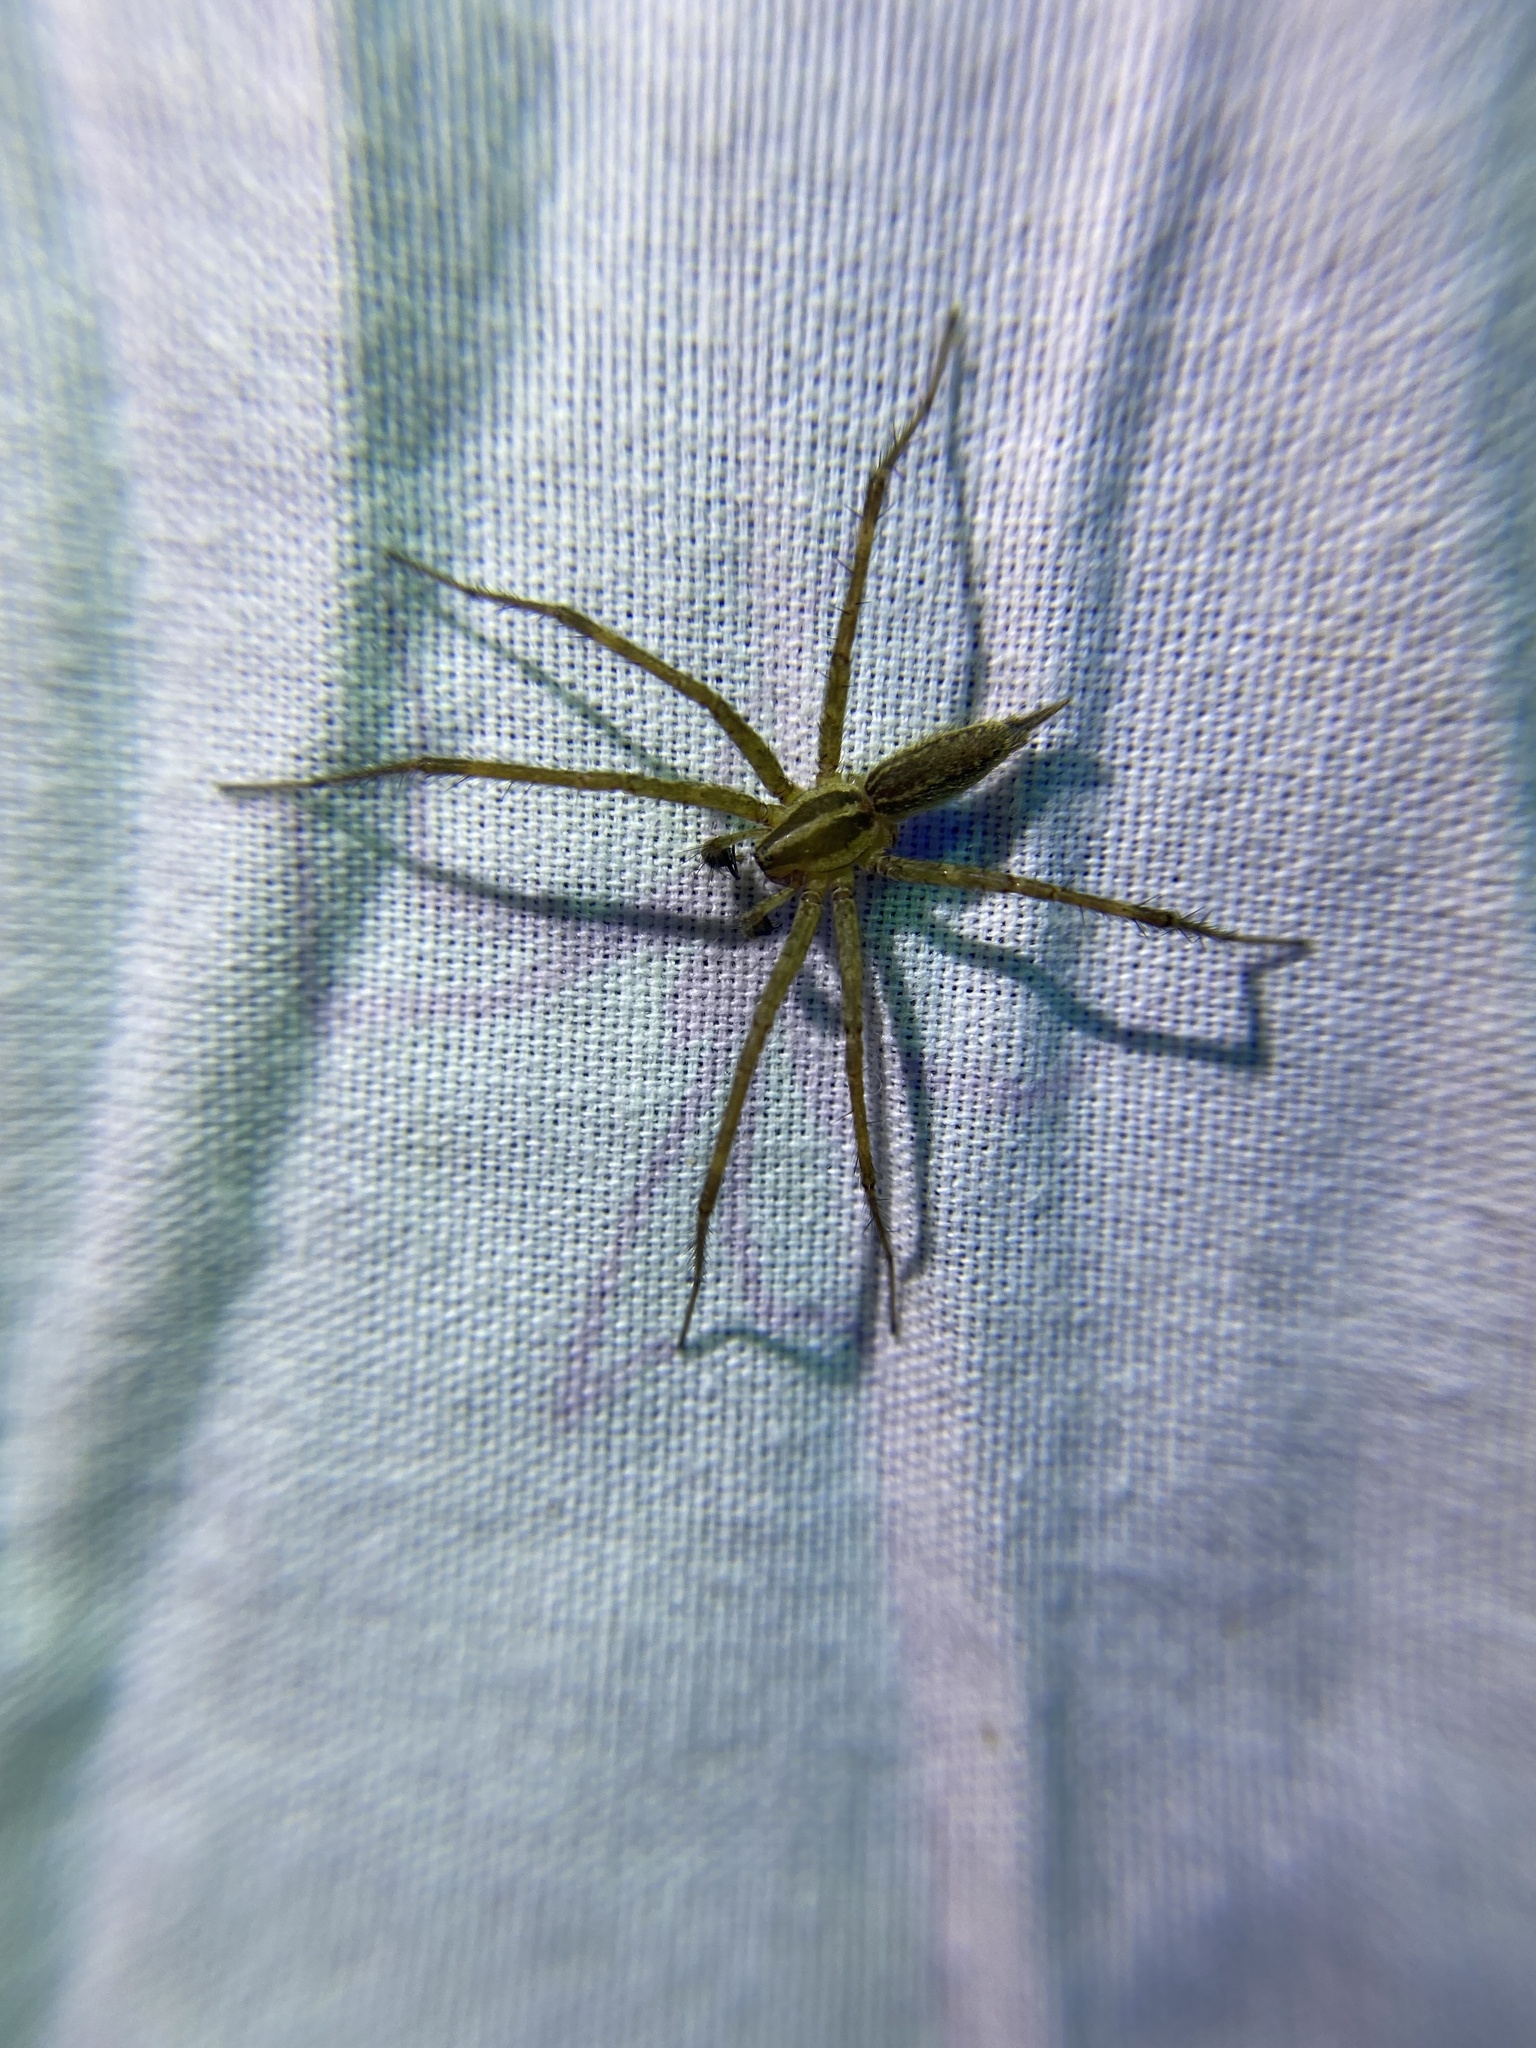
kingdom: Animalia
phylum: Arthropoda
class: Arachnida
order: Araneae
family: Agelenidae
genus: Agelenopsis
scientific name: Agelenopsis
